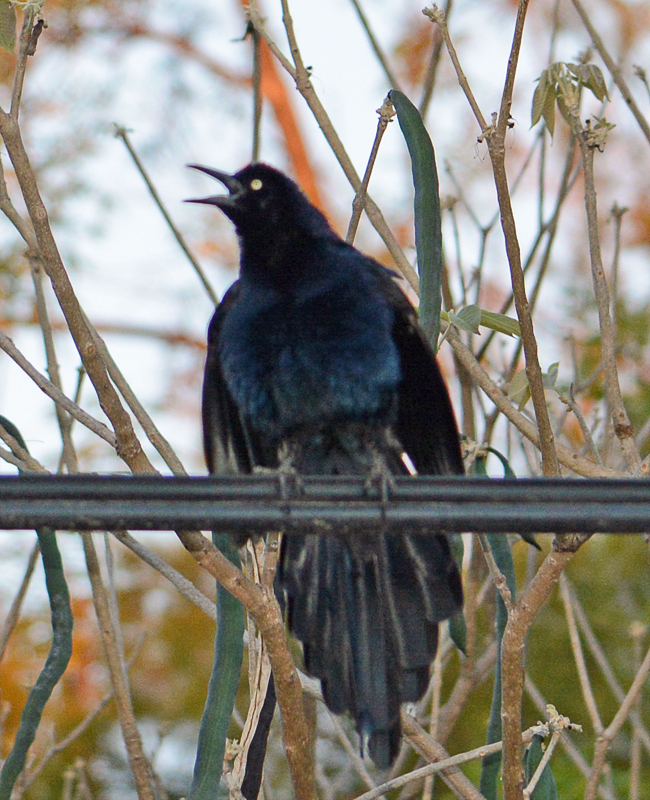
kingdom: Animalia
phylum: Chordata
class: Aves
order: Passeriformes
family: Icteridae
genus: Quiscalus
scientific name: Quiscalus mexicanus
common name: Great-tailed grackle
